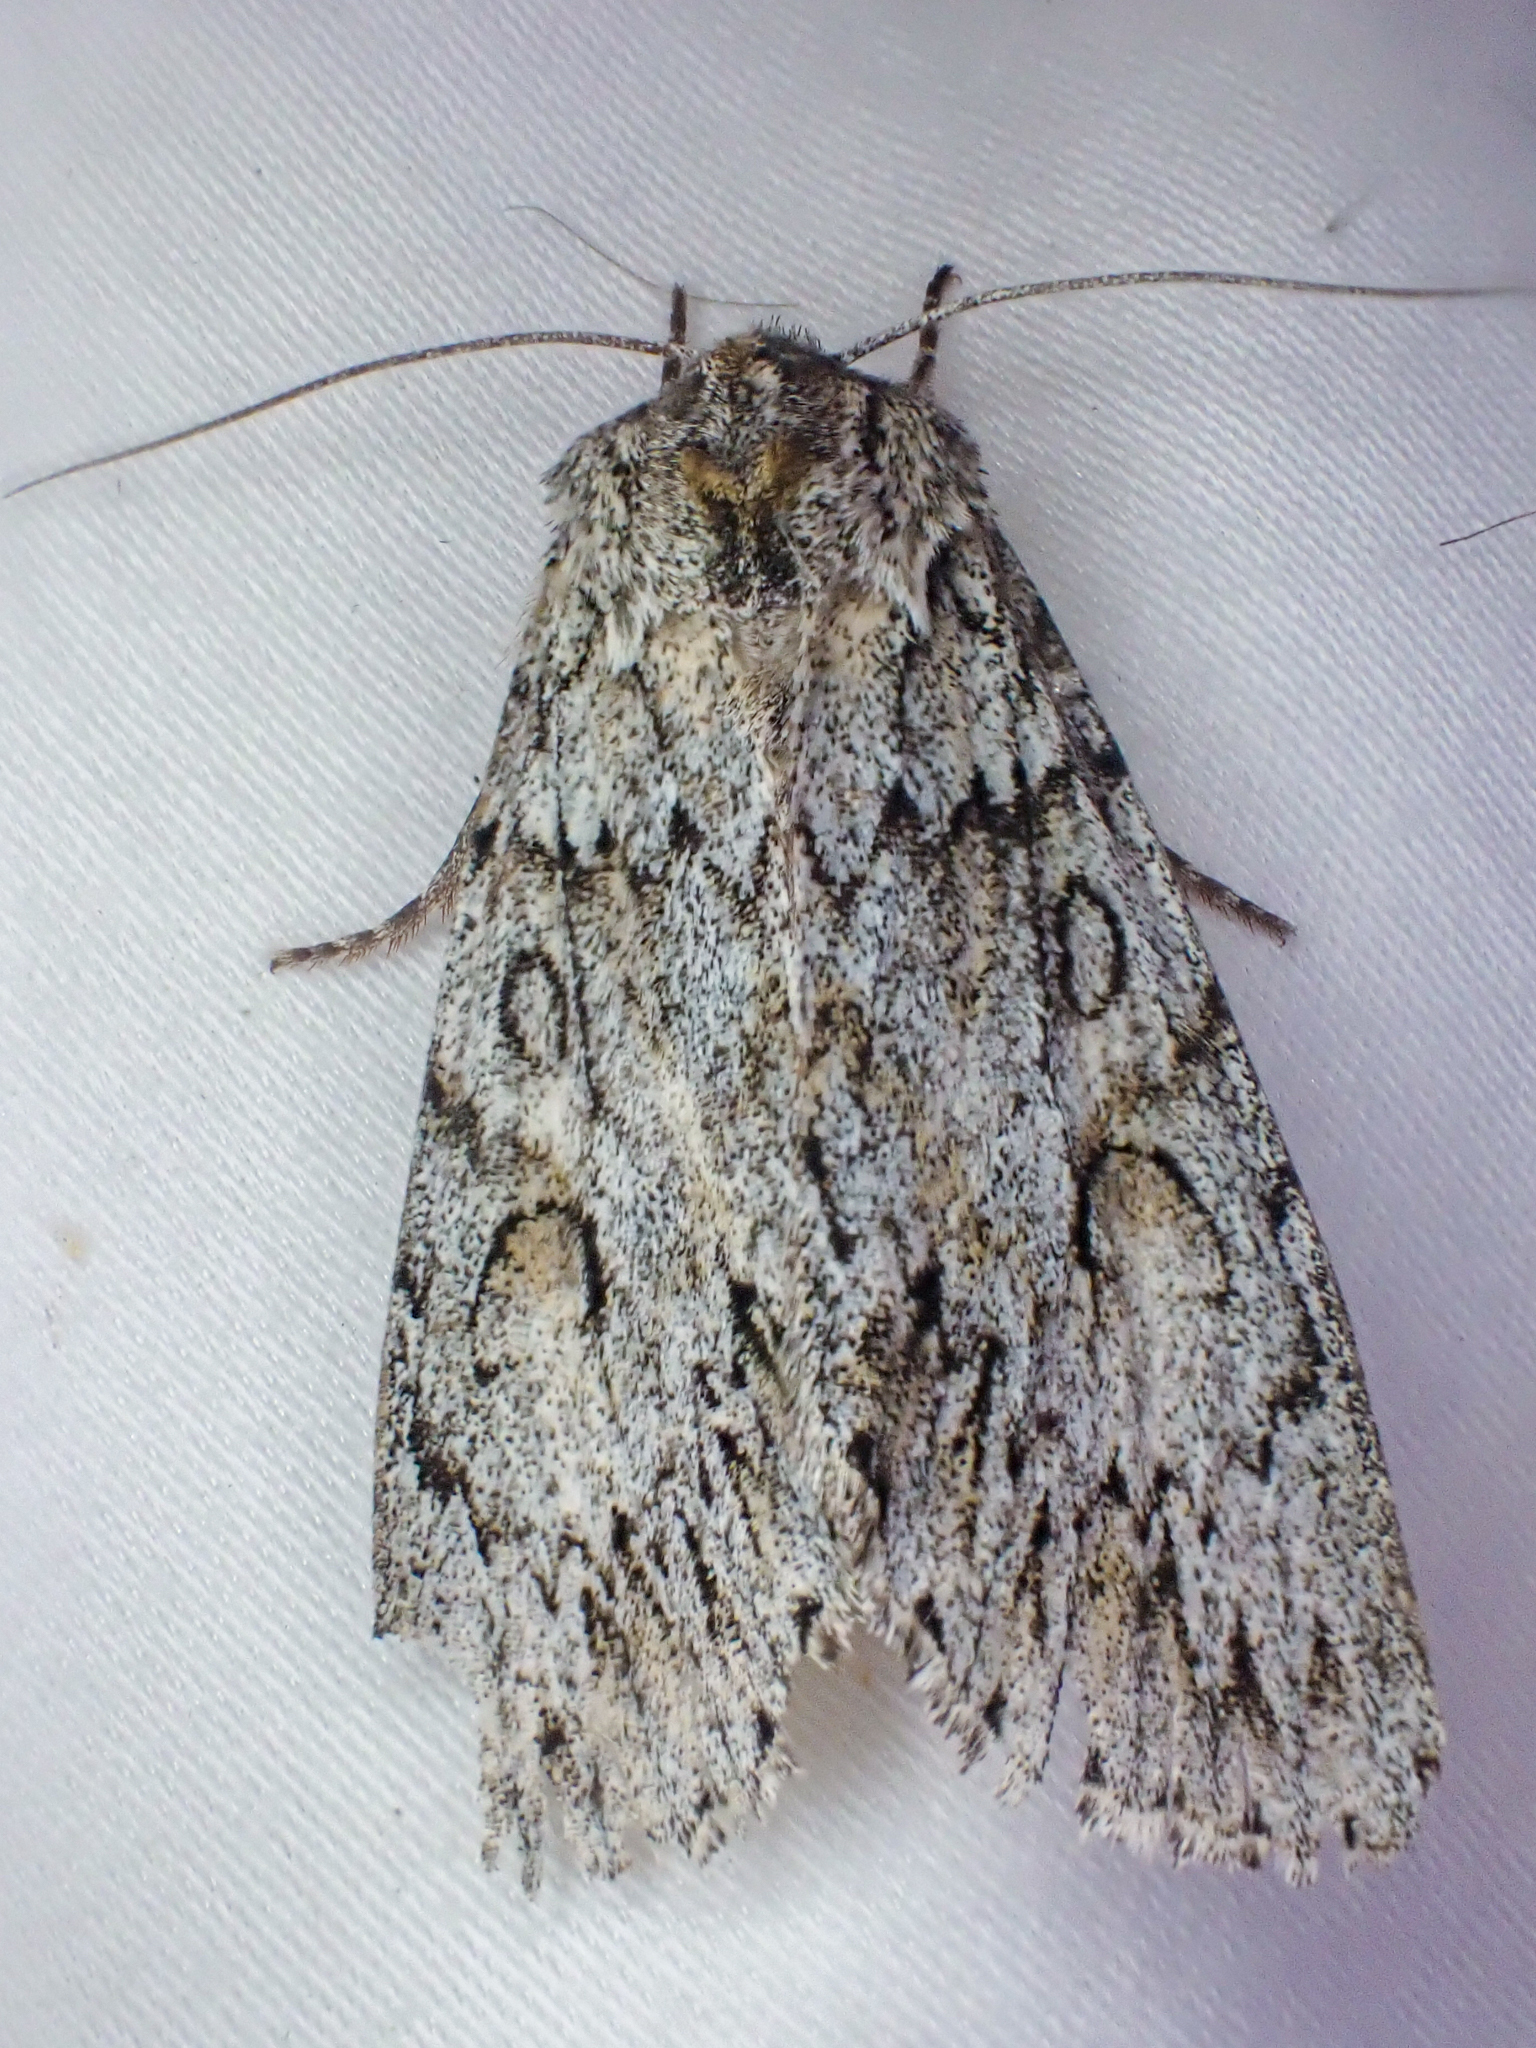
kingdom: Animalia
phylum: Arthropoda
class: Insecta
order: Lepidoptera
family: Noctuidae
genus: Andropolia
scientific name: Andropolia aedon
